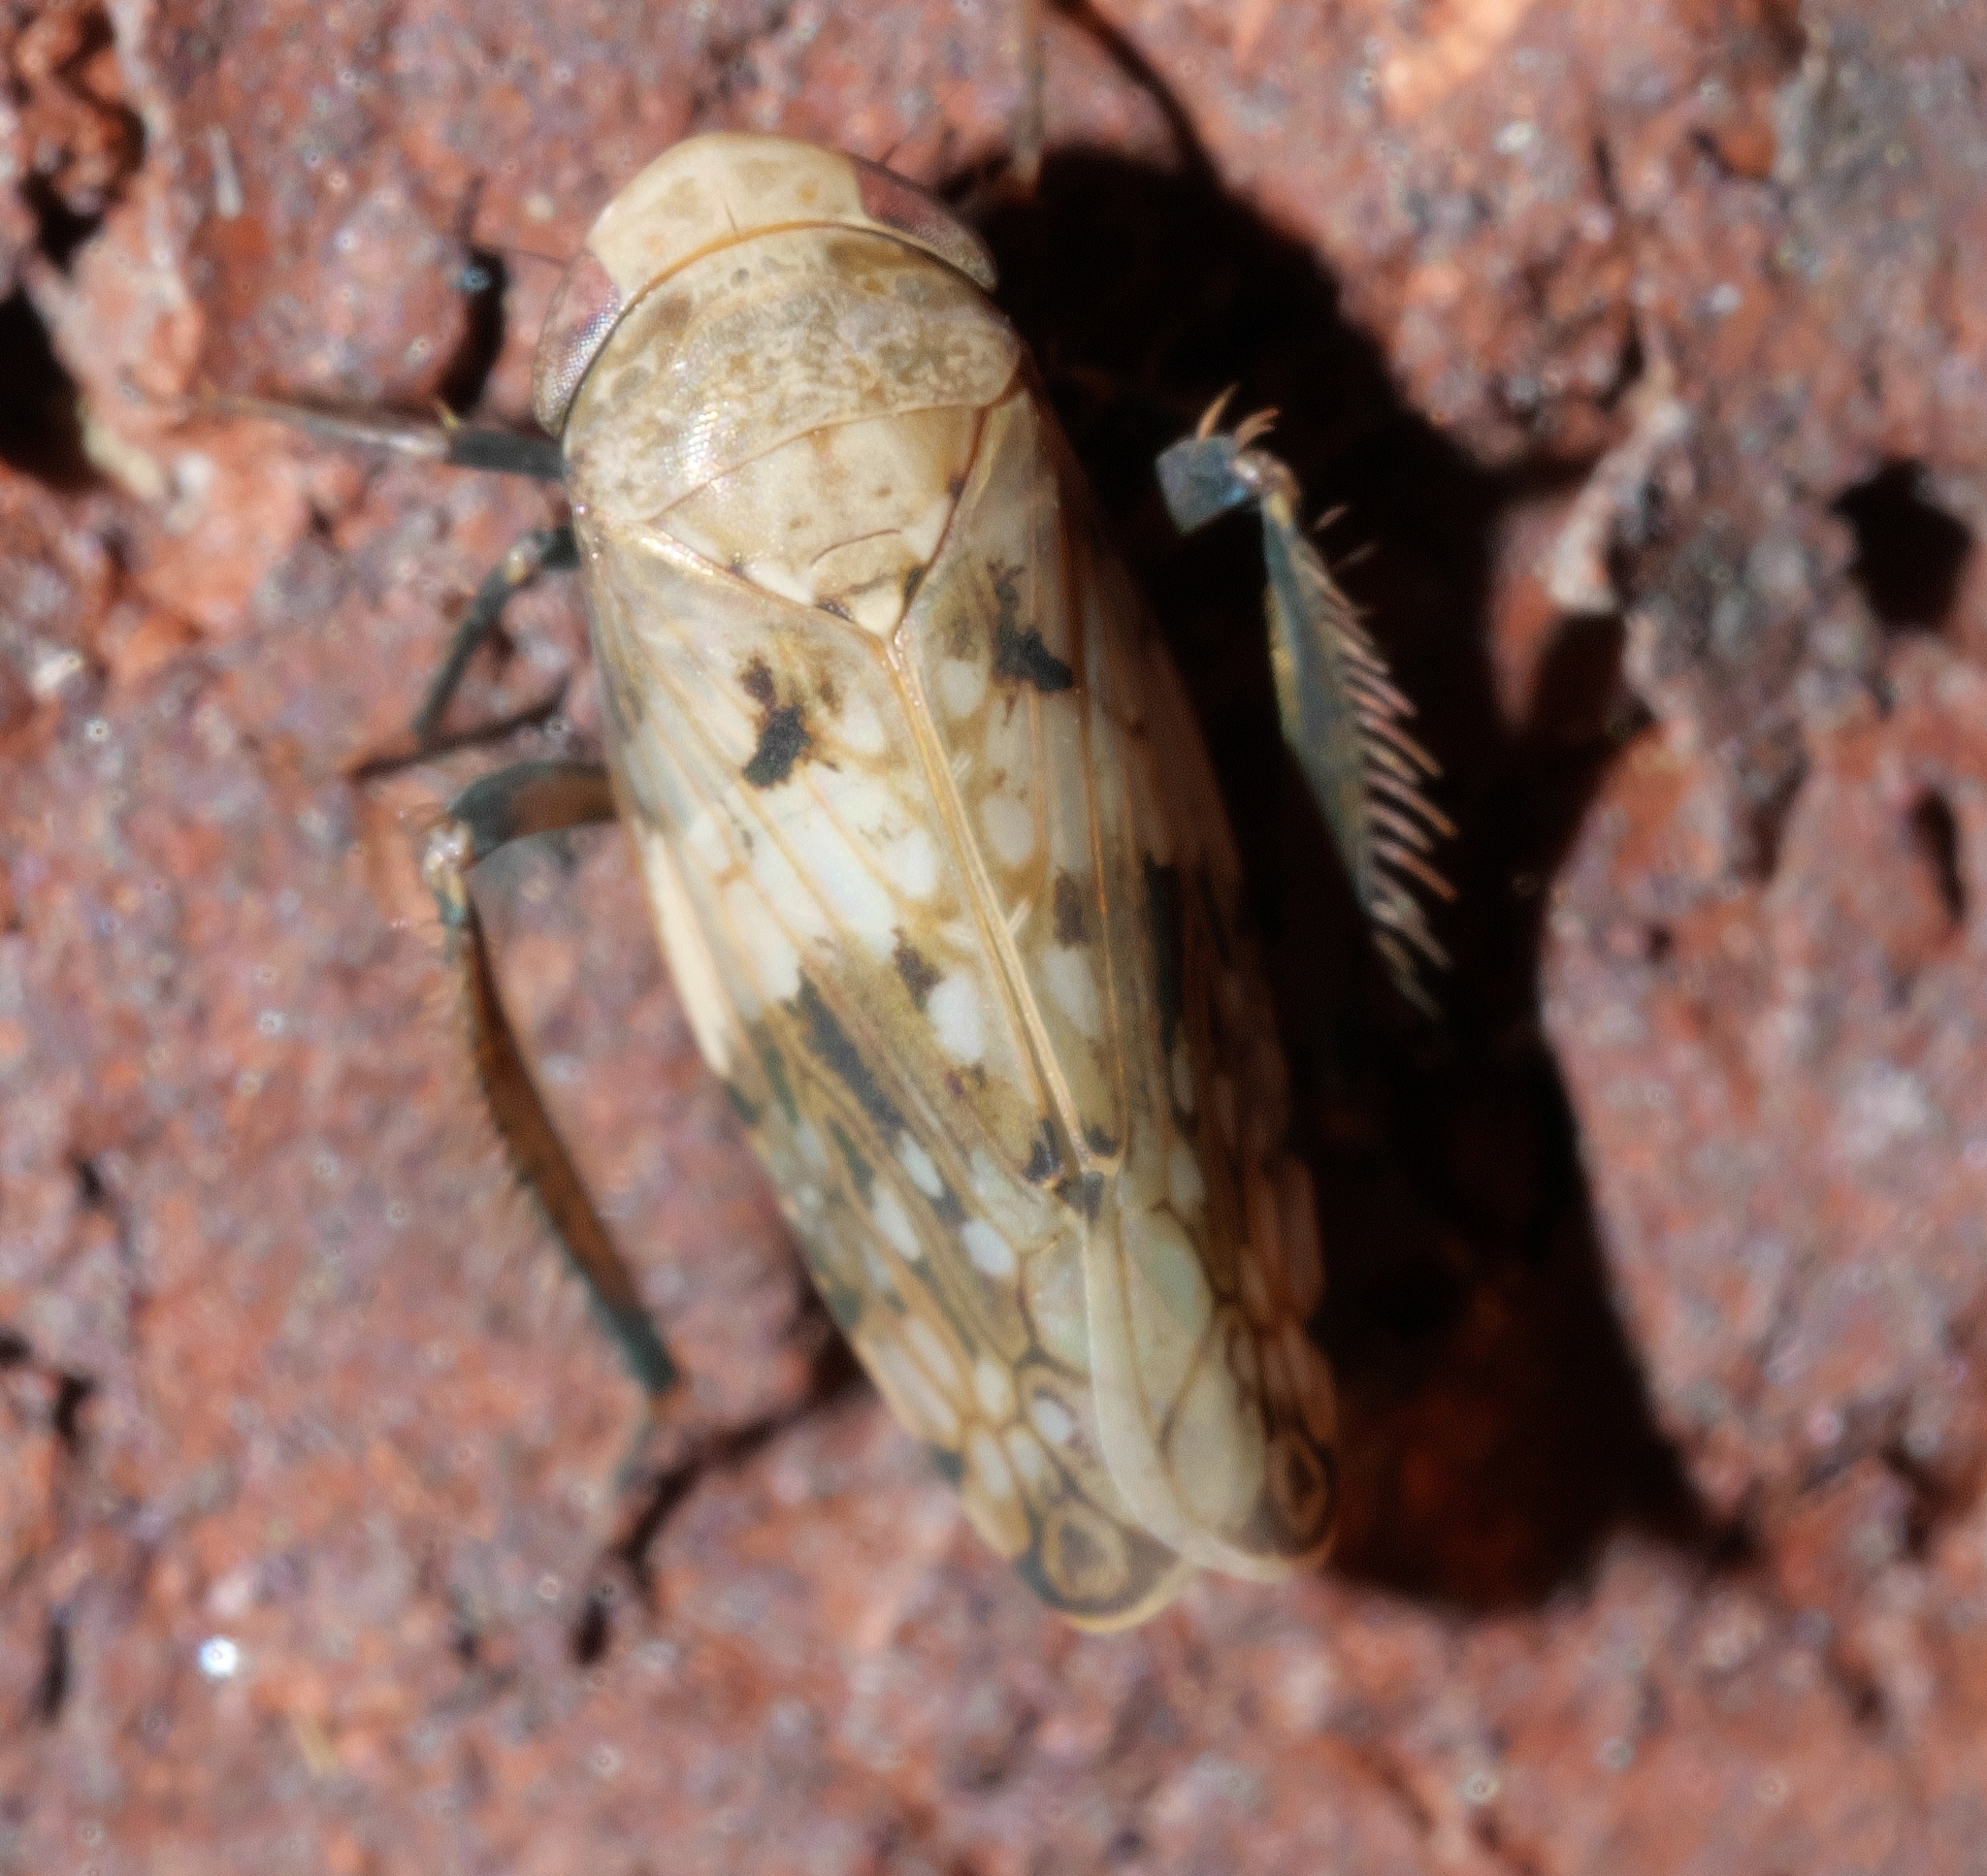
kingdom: Animalia
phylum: Arthropoda
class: Insecta
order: Hemiptera
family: Cicadellidae
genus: Menosoma
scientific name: Menosoma cinctum
